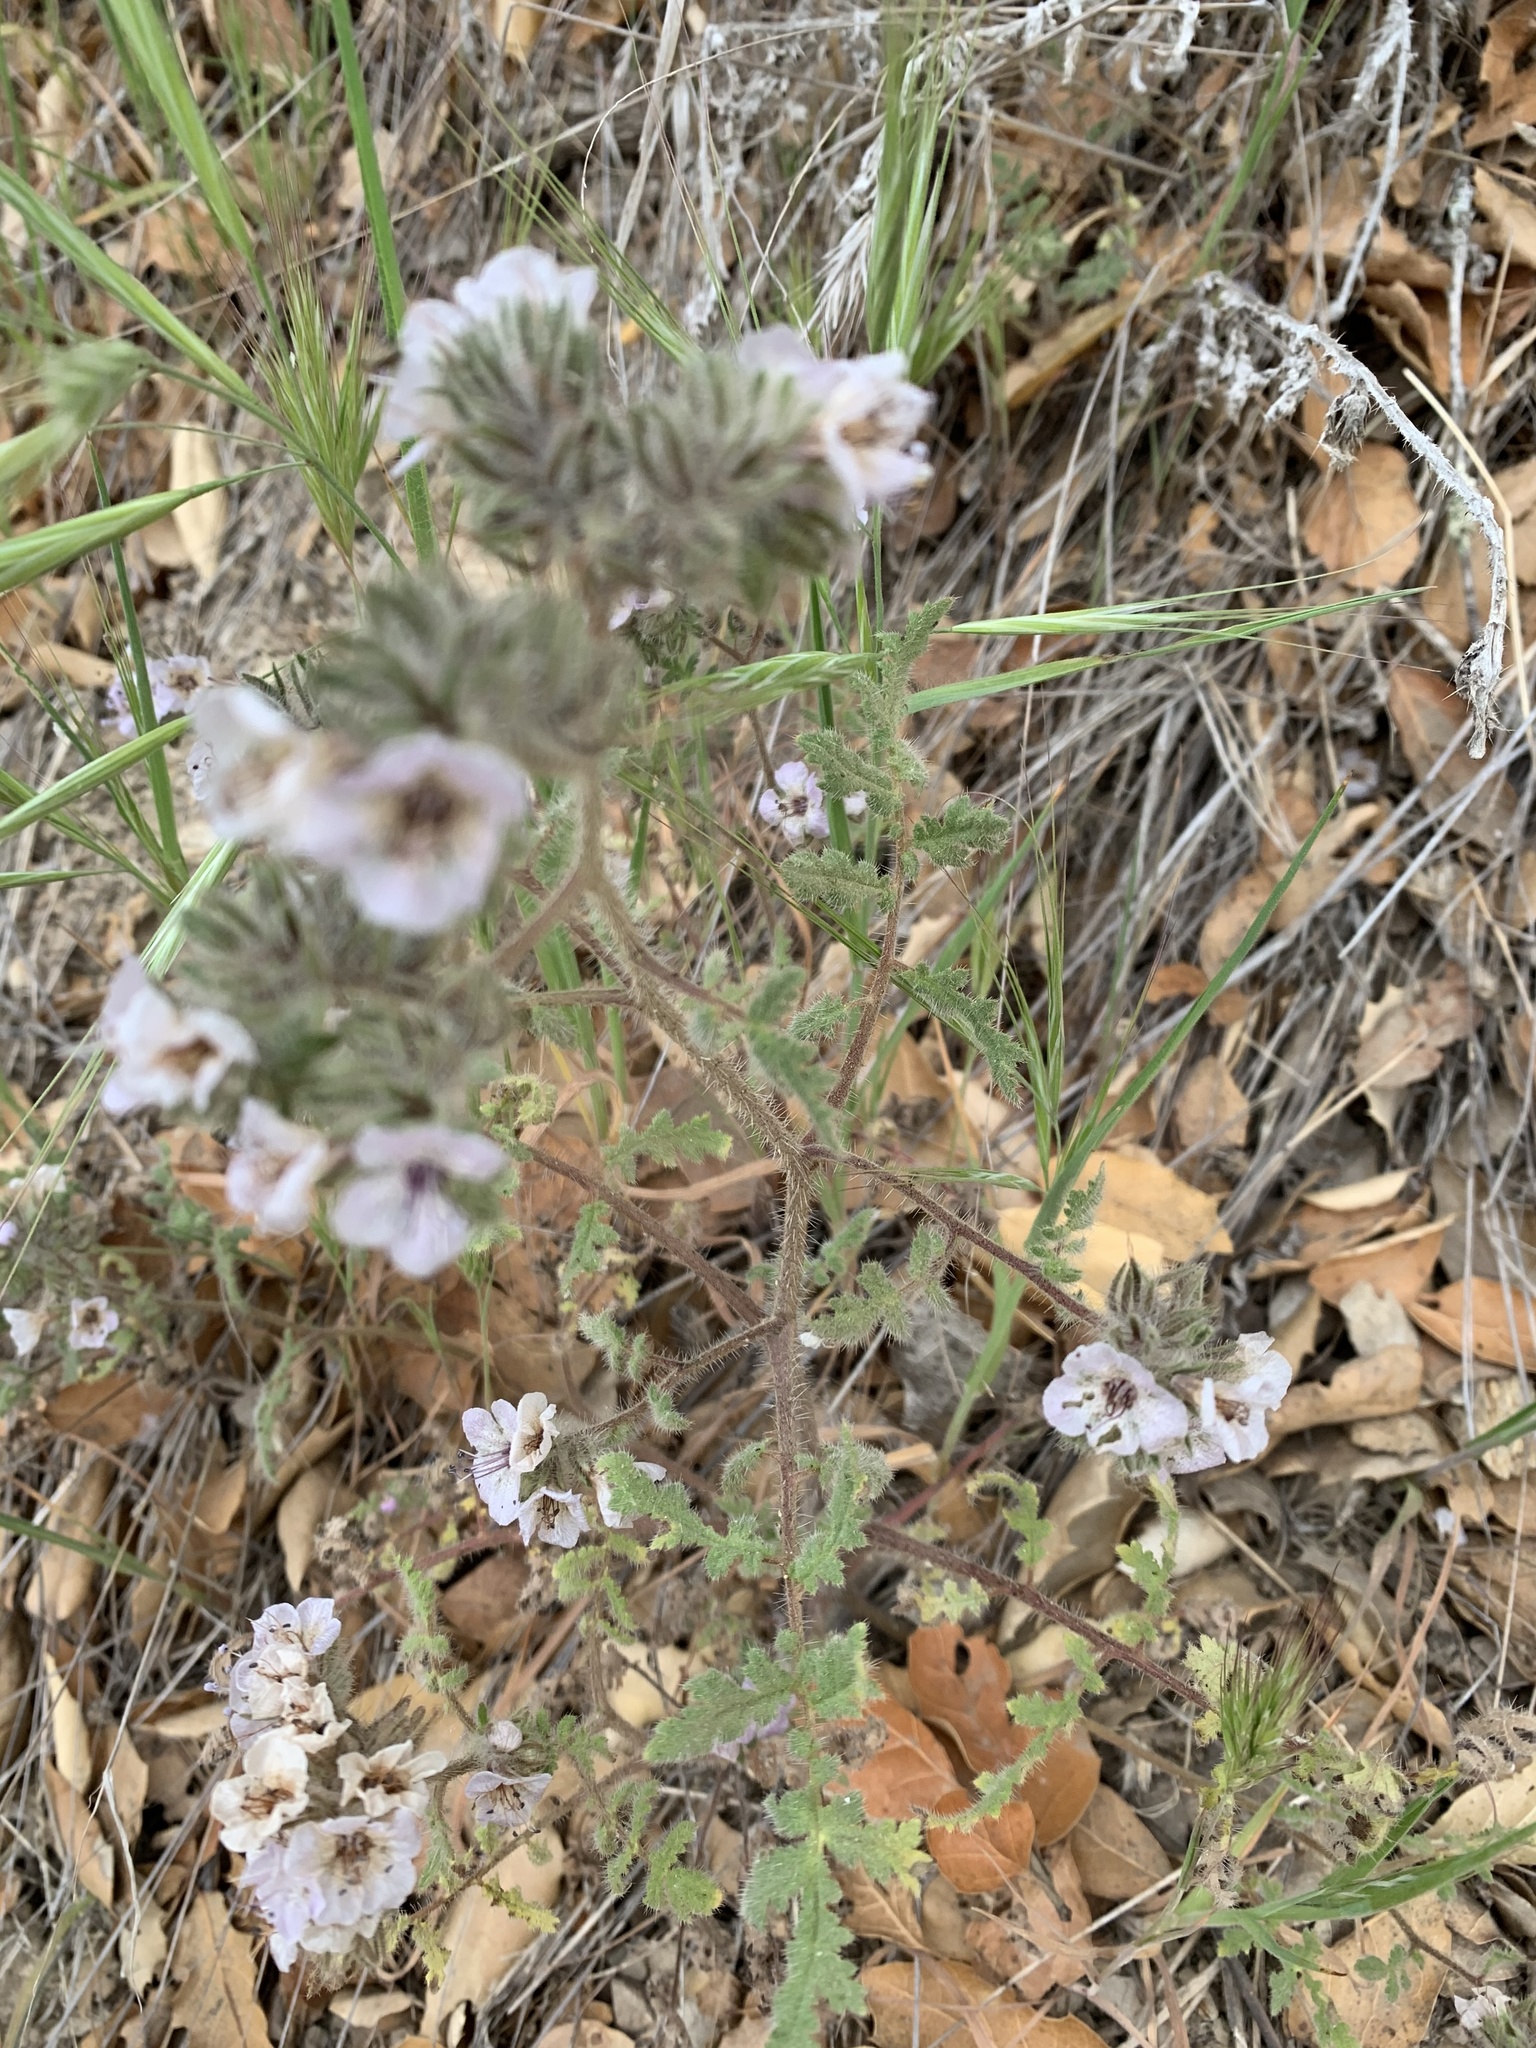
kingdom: Plantae
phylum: Tracheophyta
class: Magnoliopsida
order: Boraginales
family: Hydrophyllaceae
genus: Phacelia
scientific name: Phacelia cicutaria
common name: Caterpillar phacelia
